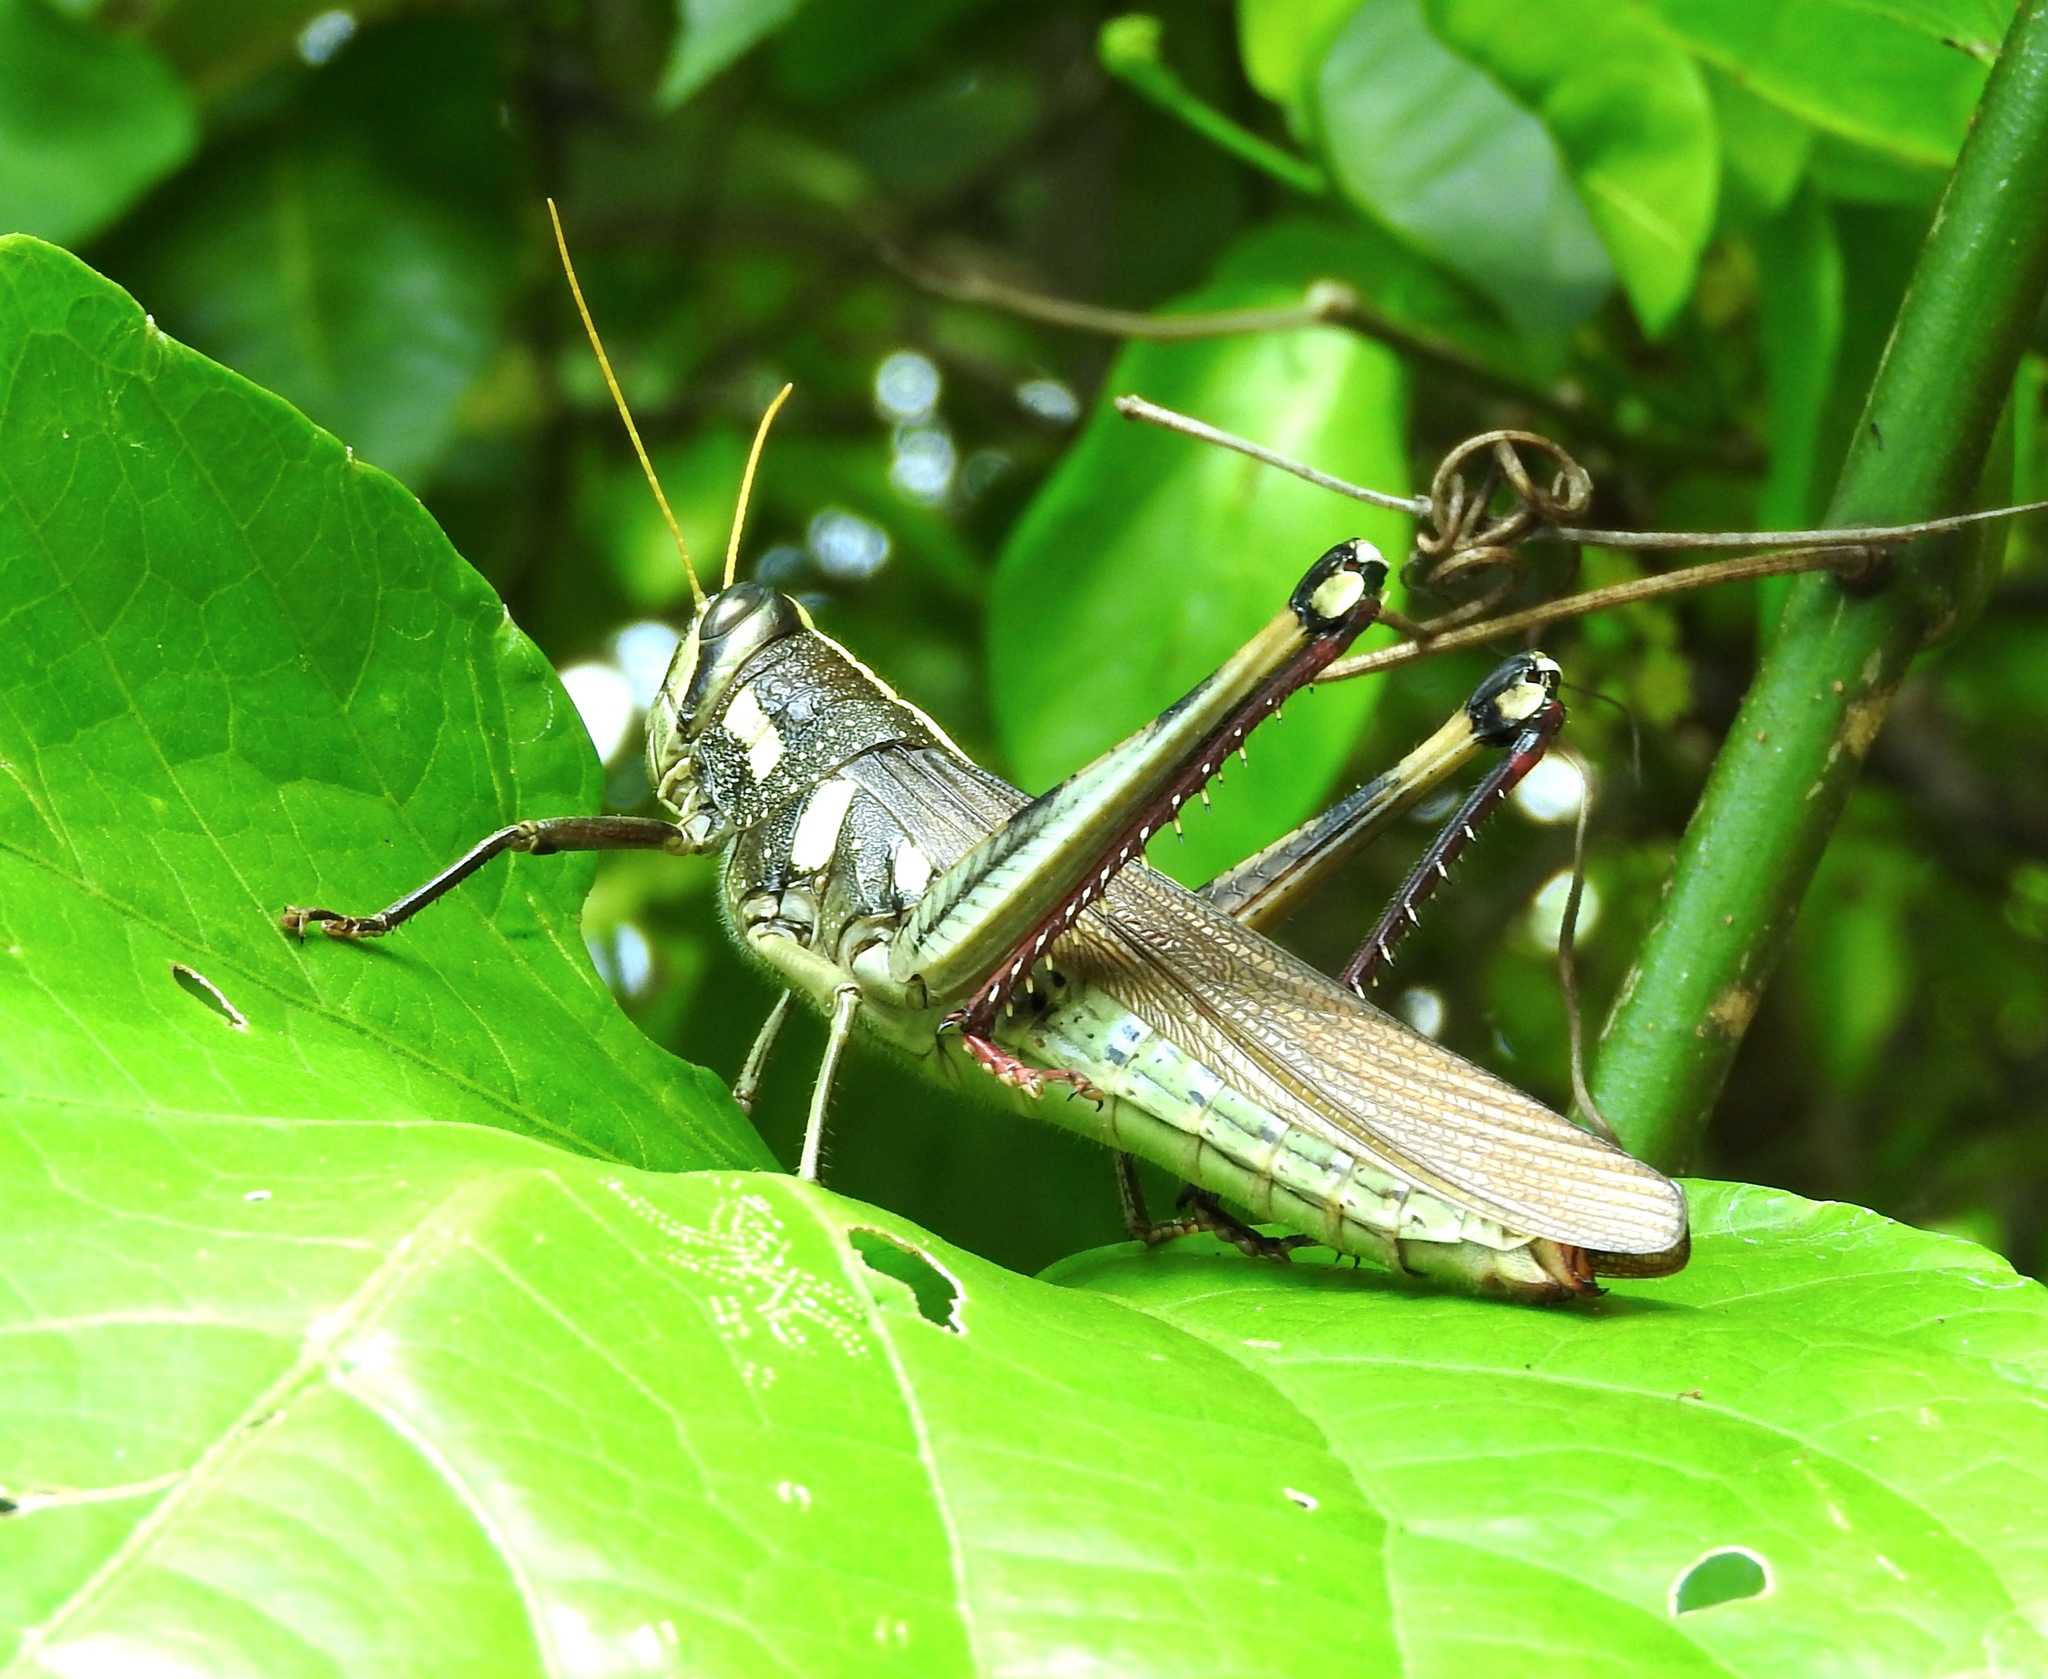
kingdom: Animalia
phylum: Arthropoda
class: Insecta
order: Orthoptera
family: Acrididae
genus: Schistocerca
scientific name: Schistocerca albolineata
